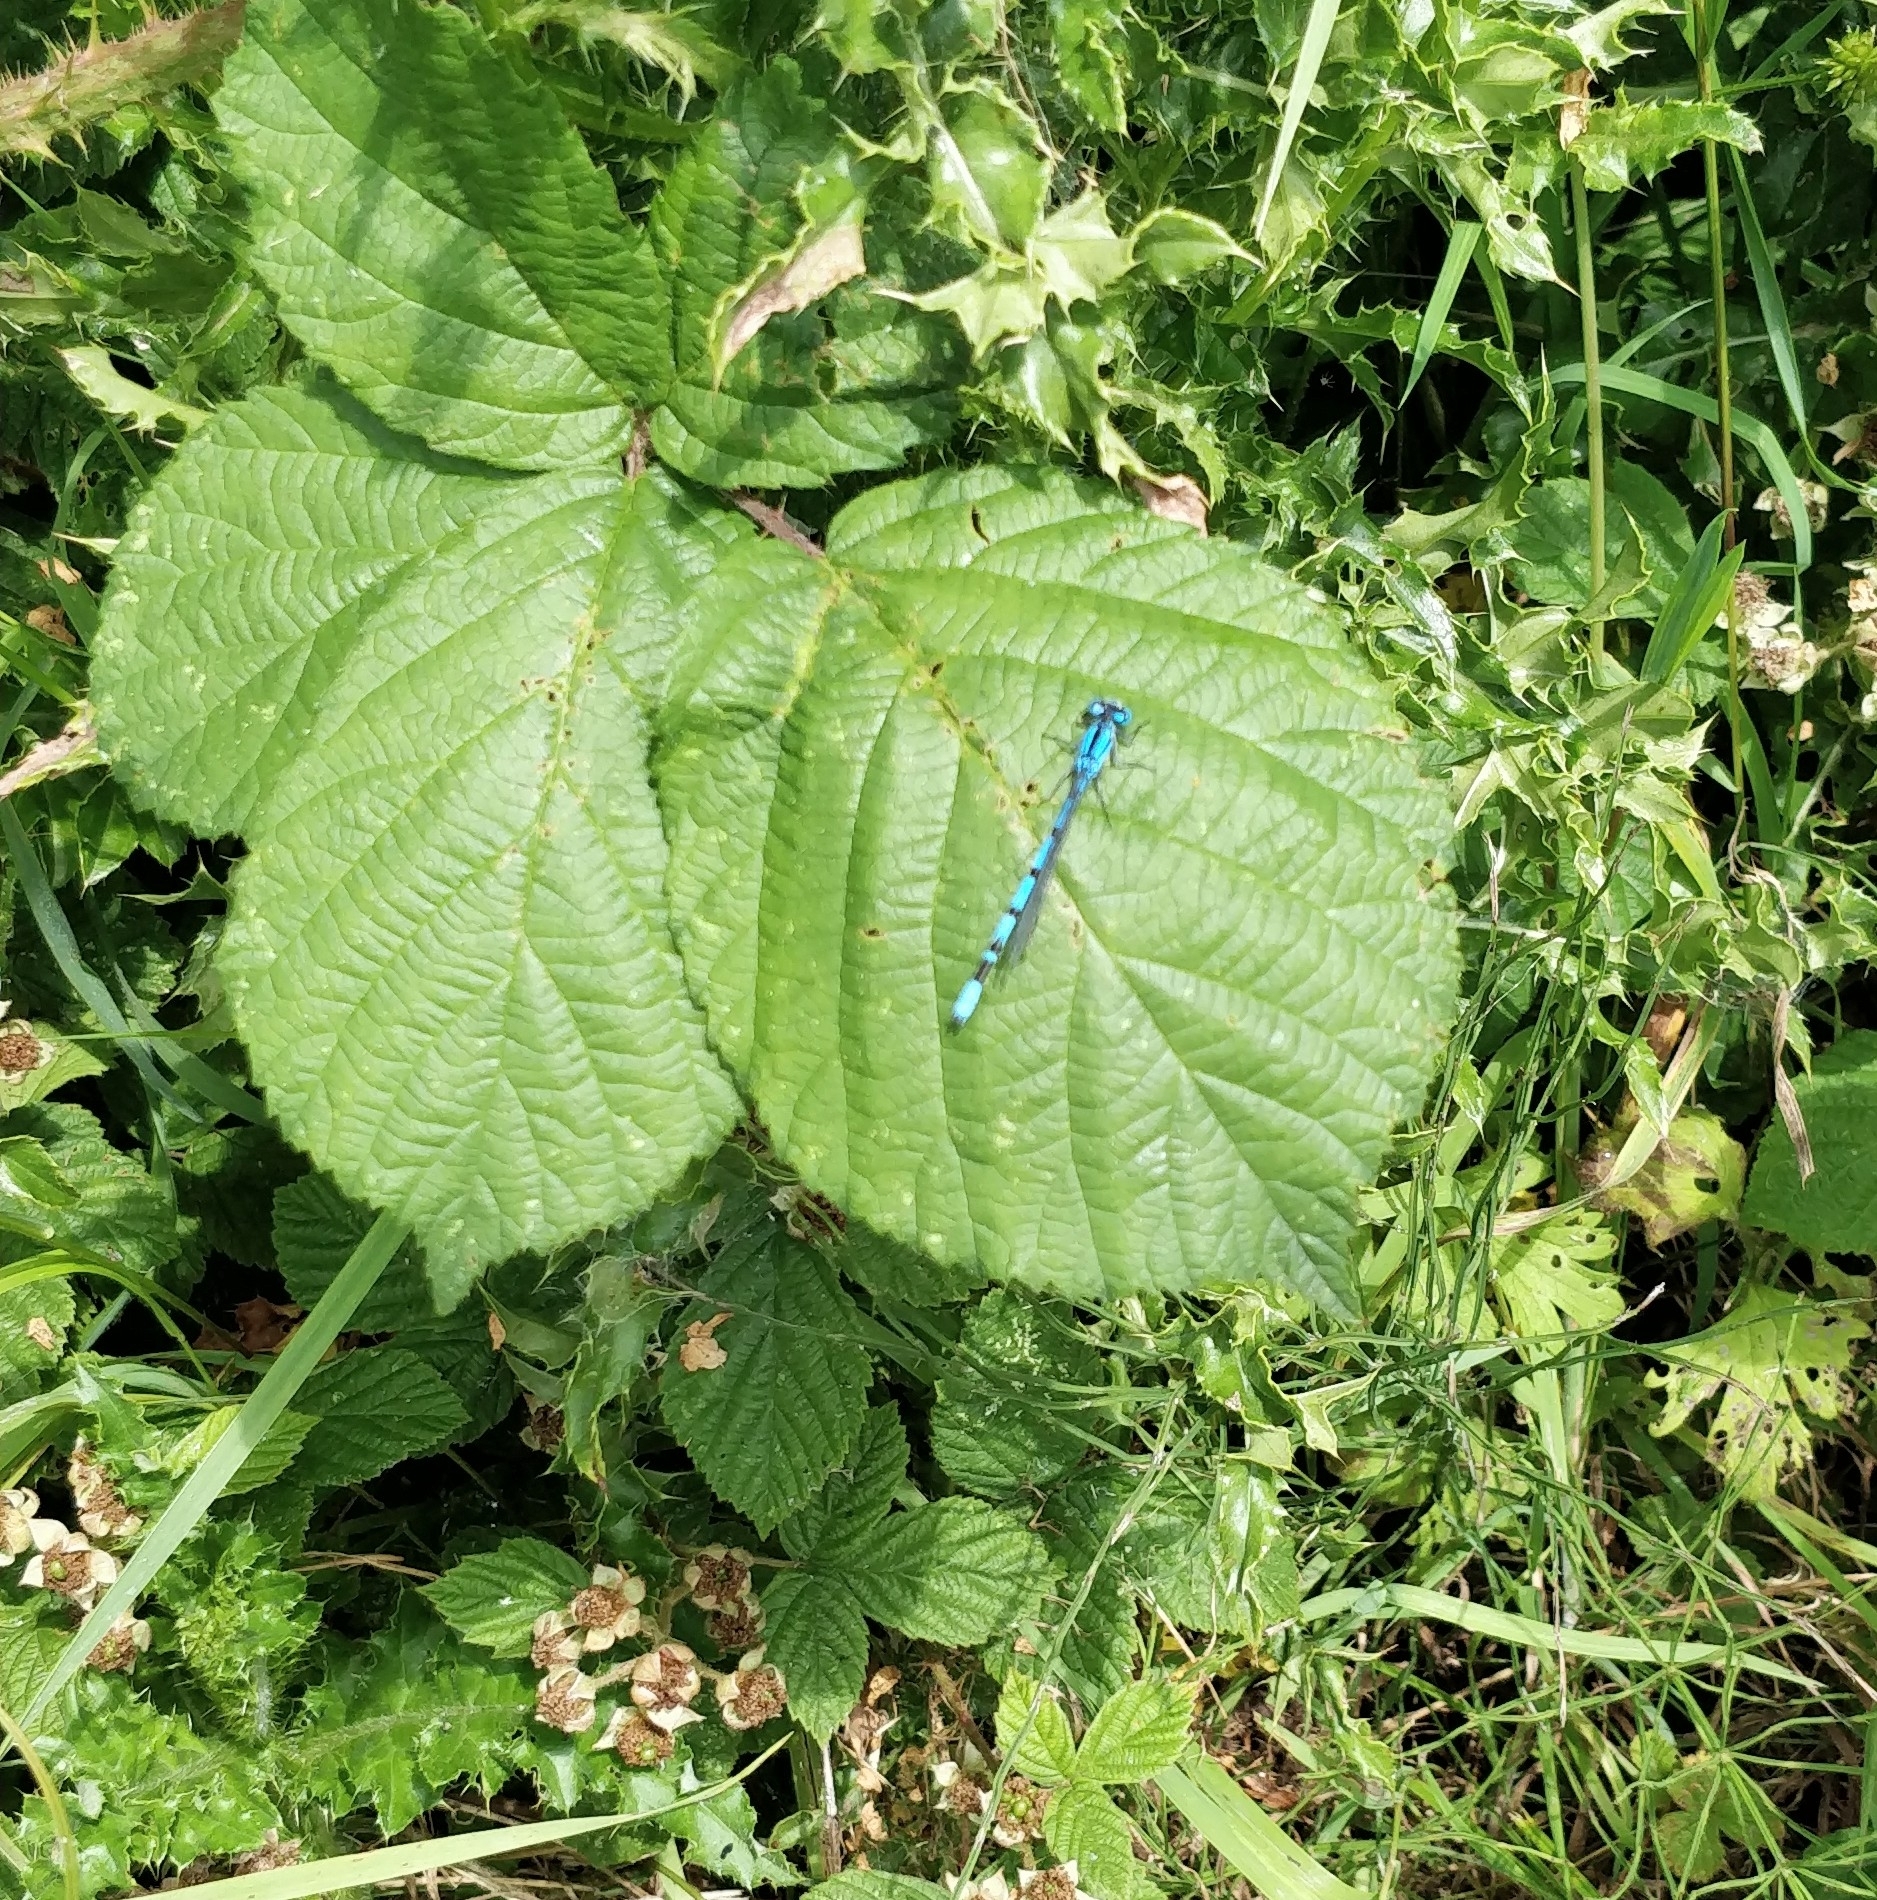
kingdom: Animalia
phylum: Arthropoda
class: Insecta
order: Odonata
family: Coenagrionidae
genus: Enallagma
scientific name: Enallagma cyathigerum
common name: Common blue damselfly
